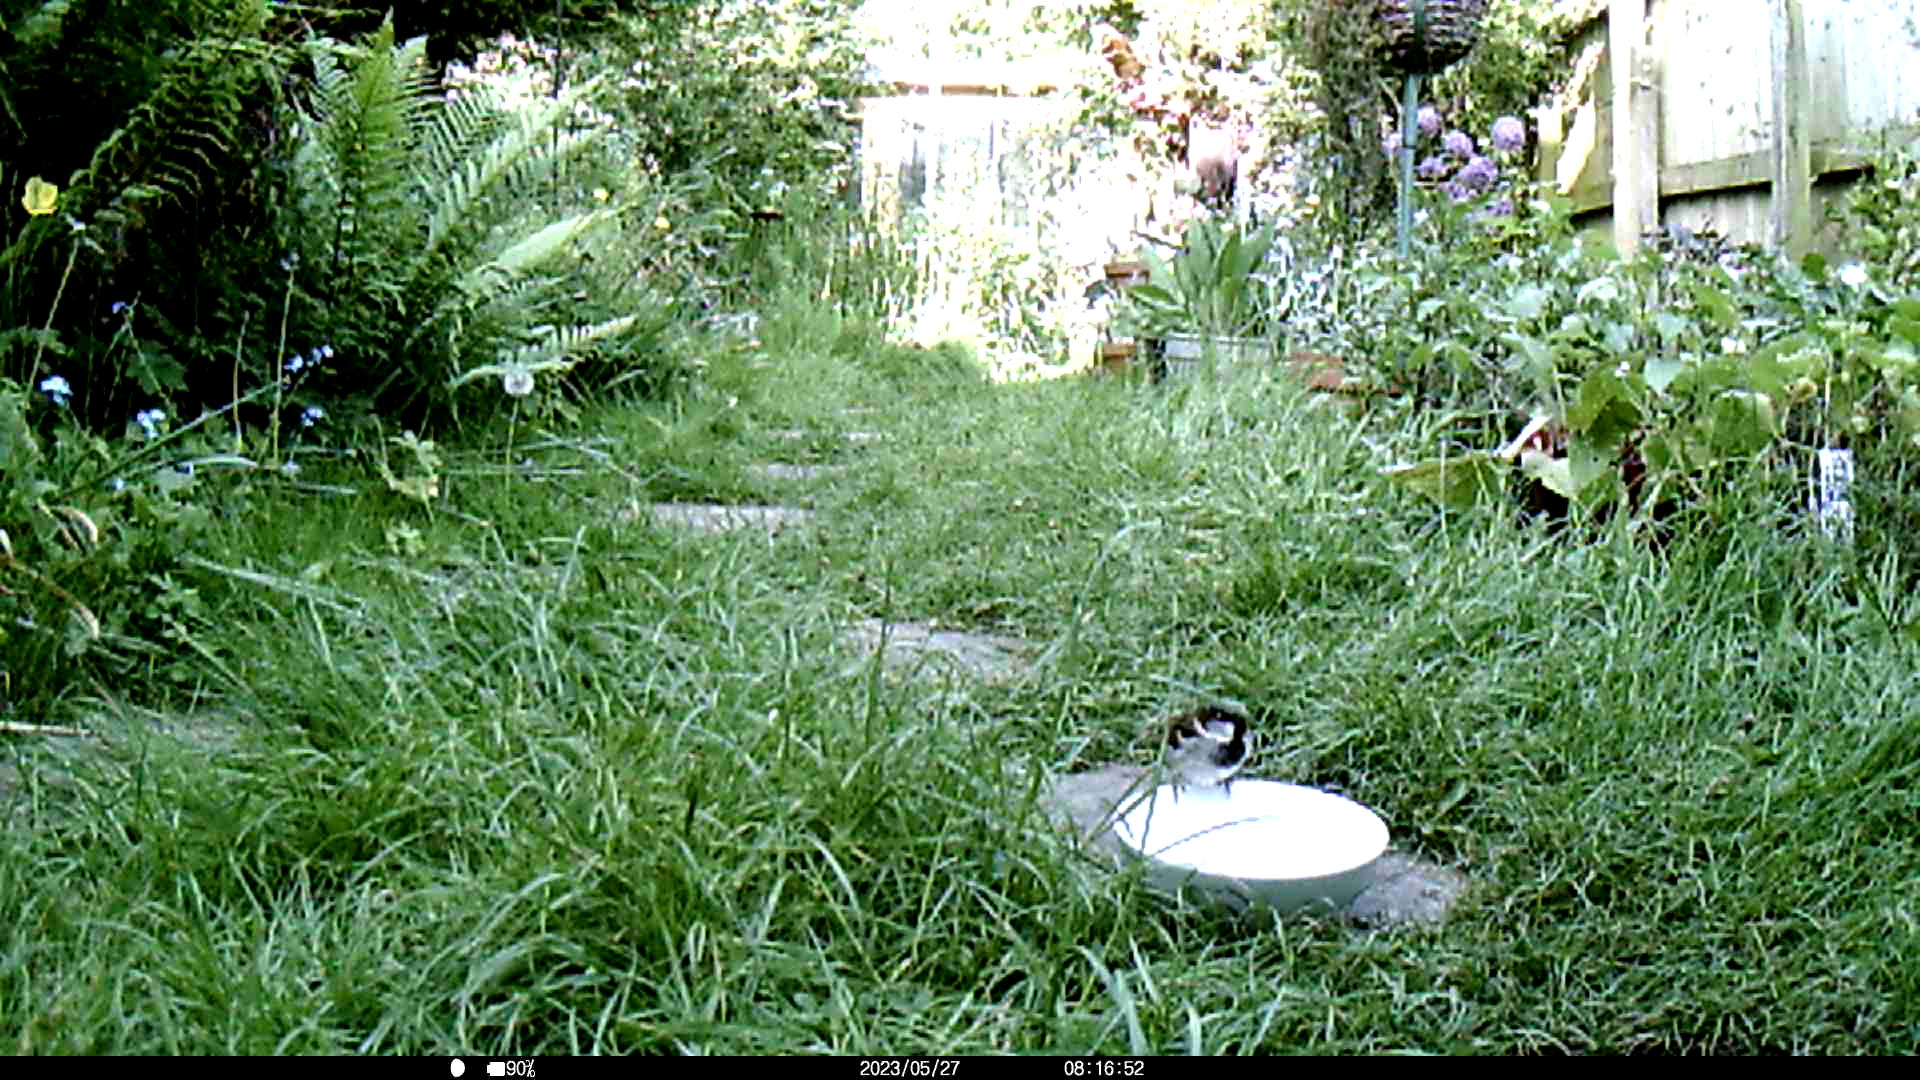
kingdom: Animalia
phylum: Chordata
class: Aves
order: Passeriformes
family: Passeridae
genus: Passer
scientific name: Passer domesticus
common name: House sparrow
